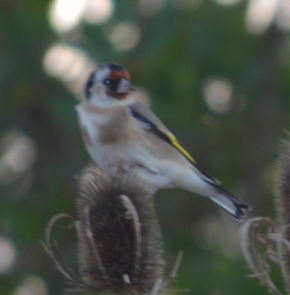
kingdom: Animalia
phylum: Chordata
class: Aves
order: Passeriformes
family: Fringillidae
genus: Carduelis
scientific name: Carduelis carduelis
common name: European goldfinch
